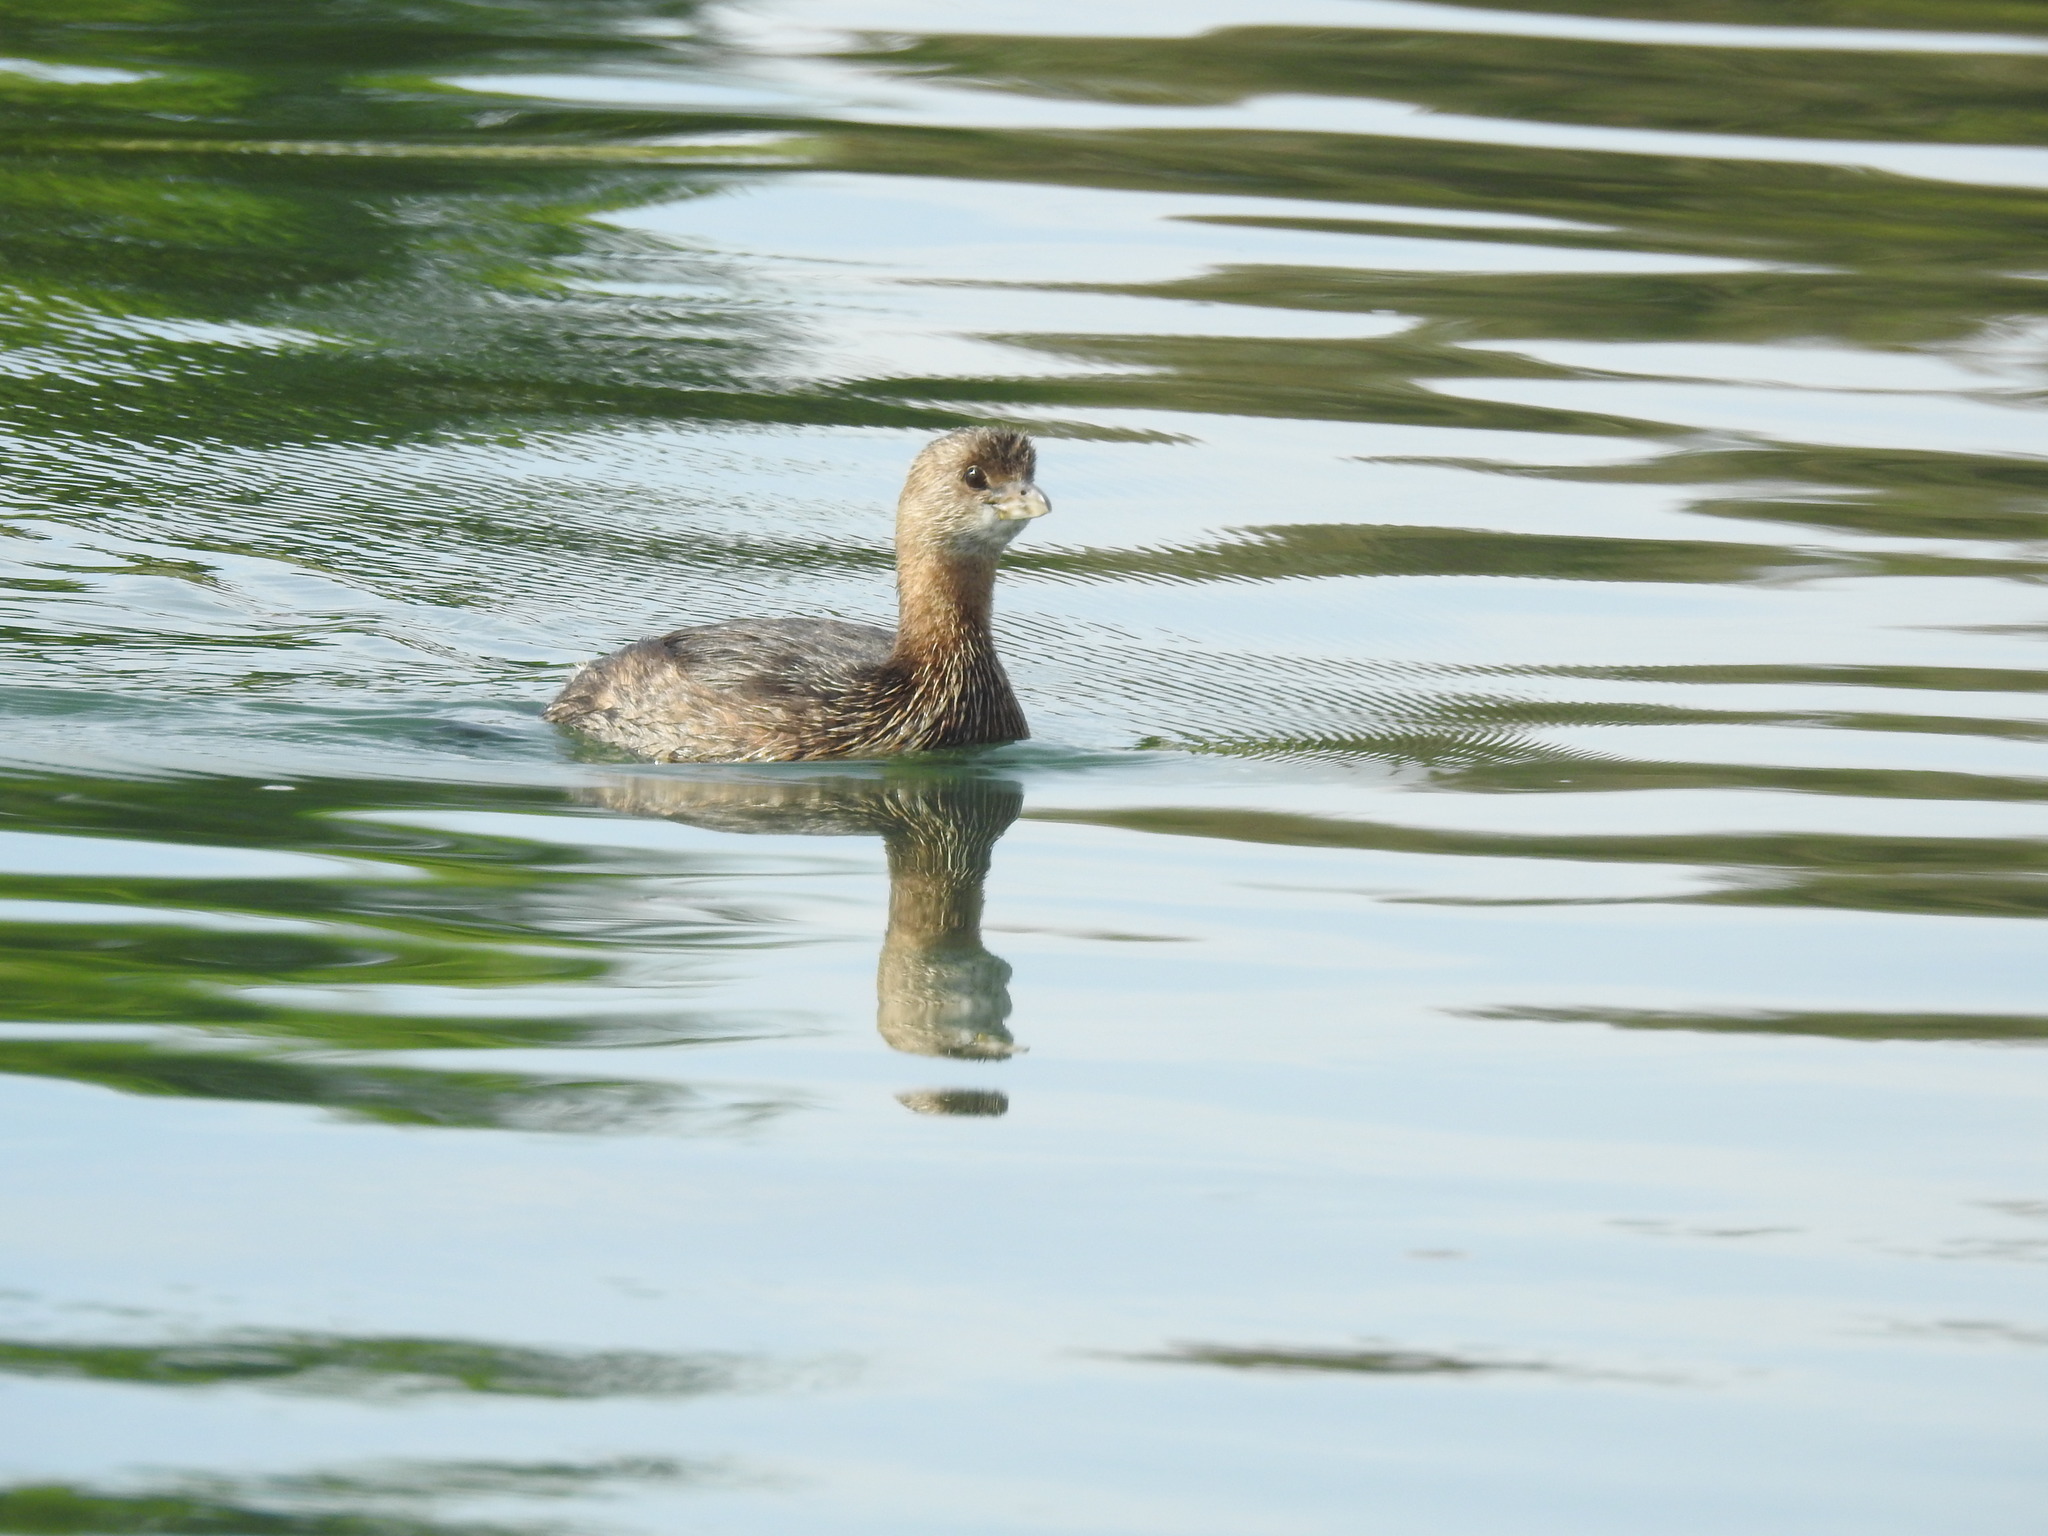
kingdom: Animalia
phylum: Chordata
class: Aves
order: Podicipediformes
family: Podicipedidae
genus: Podilymbus
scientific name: Podilymbus podiceps
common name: Pied-billed grebe
